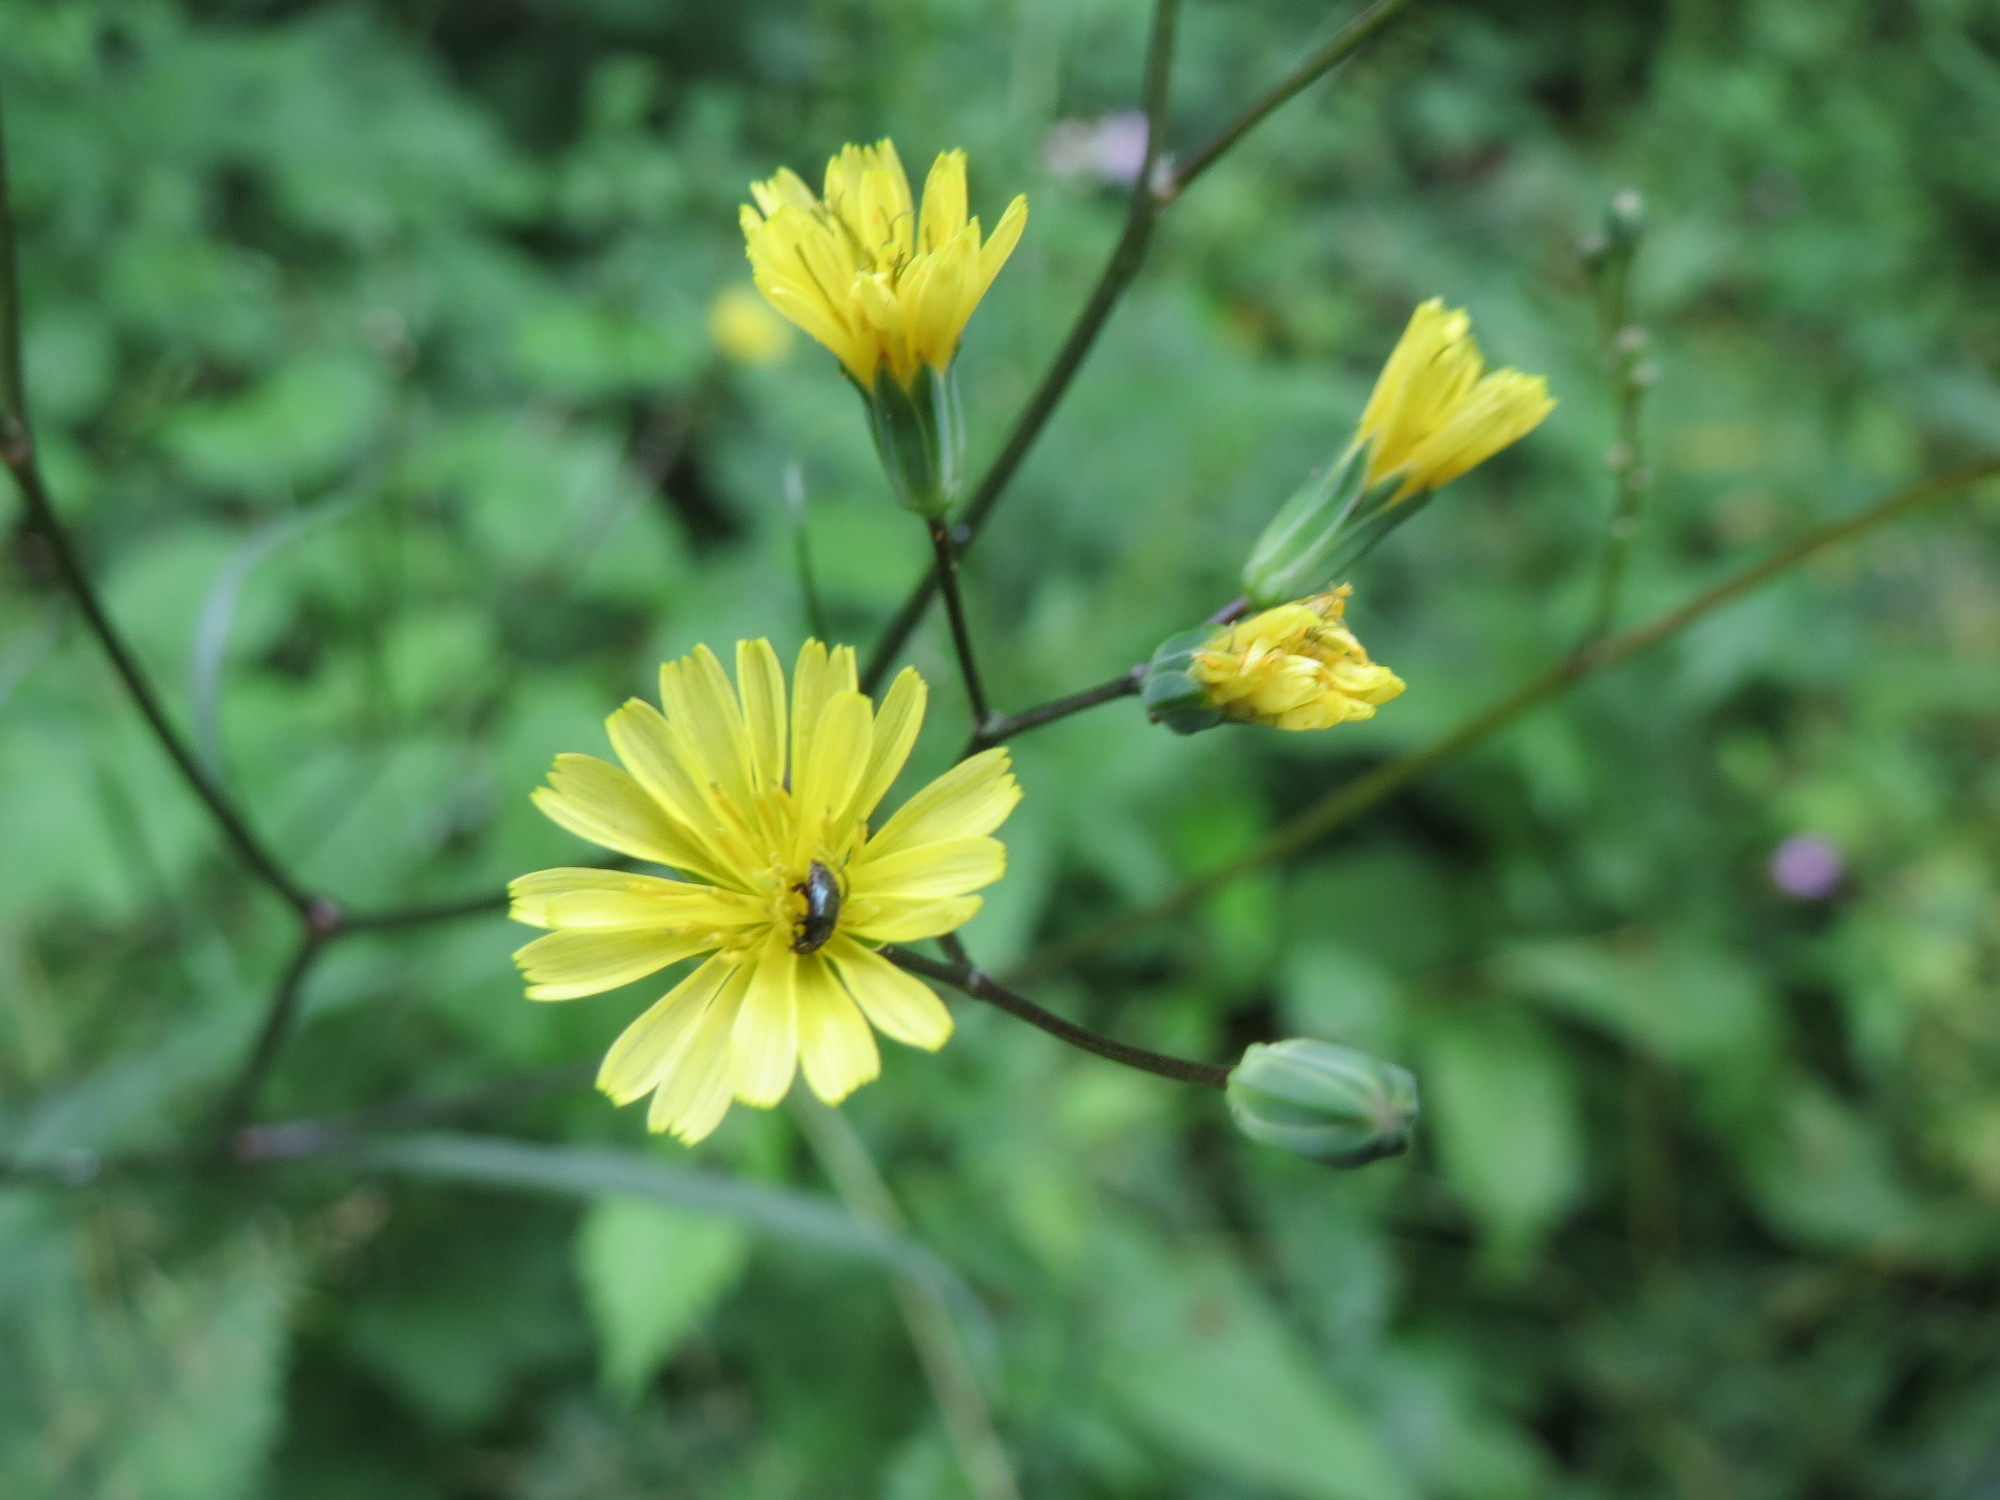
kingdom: Plantae
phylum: Tracheophyta
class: Magnoliopsida
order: Asterales
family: Asteraceae
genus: Lapsana
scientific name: Lapsana communis
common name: Nipplewort
